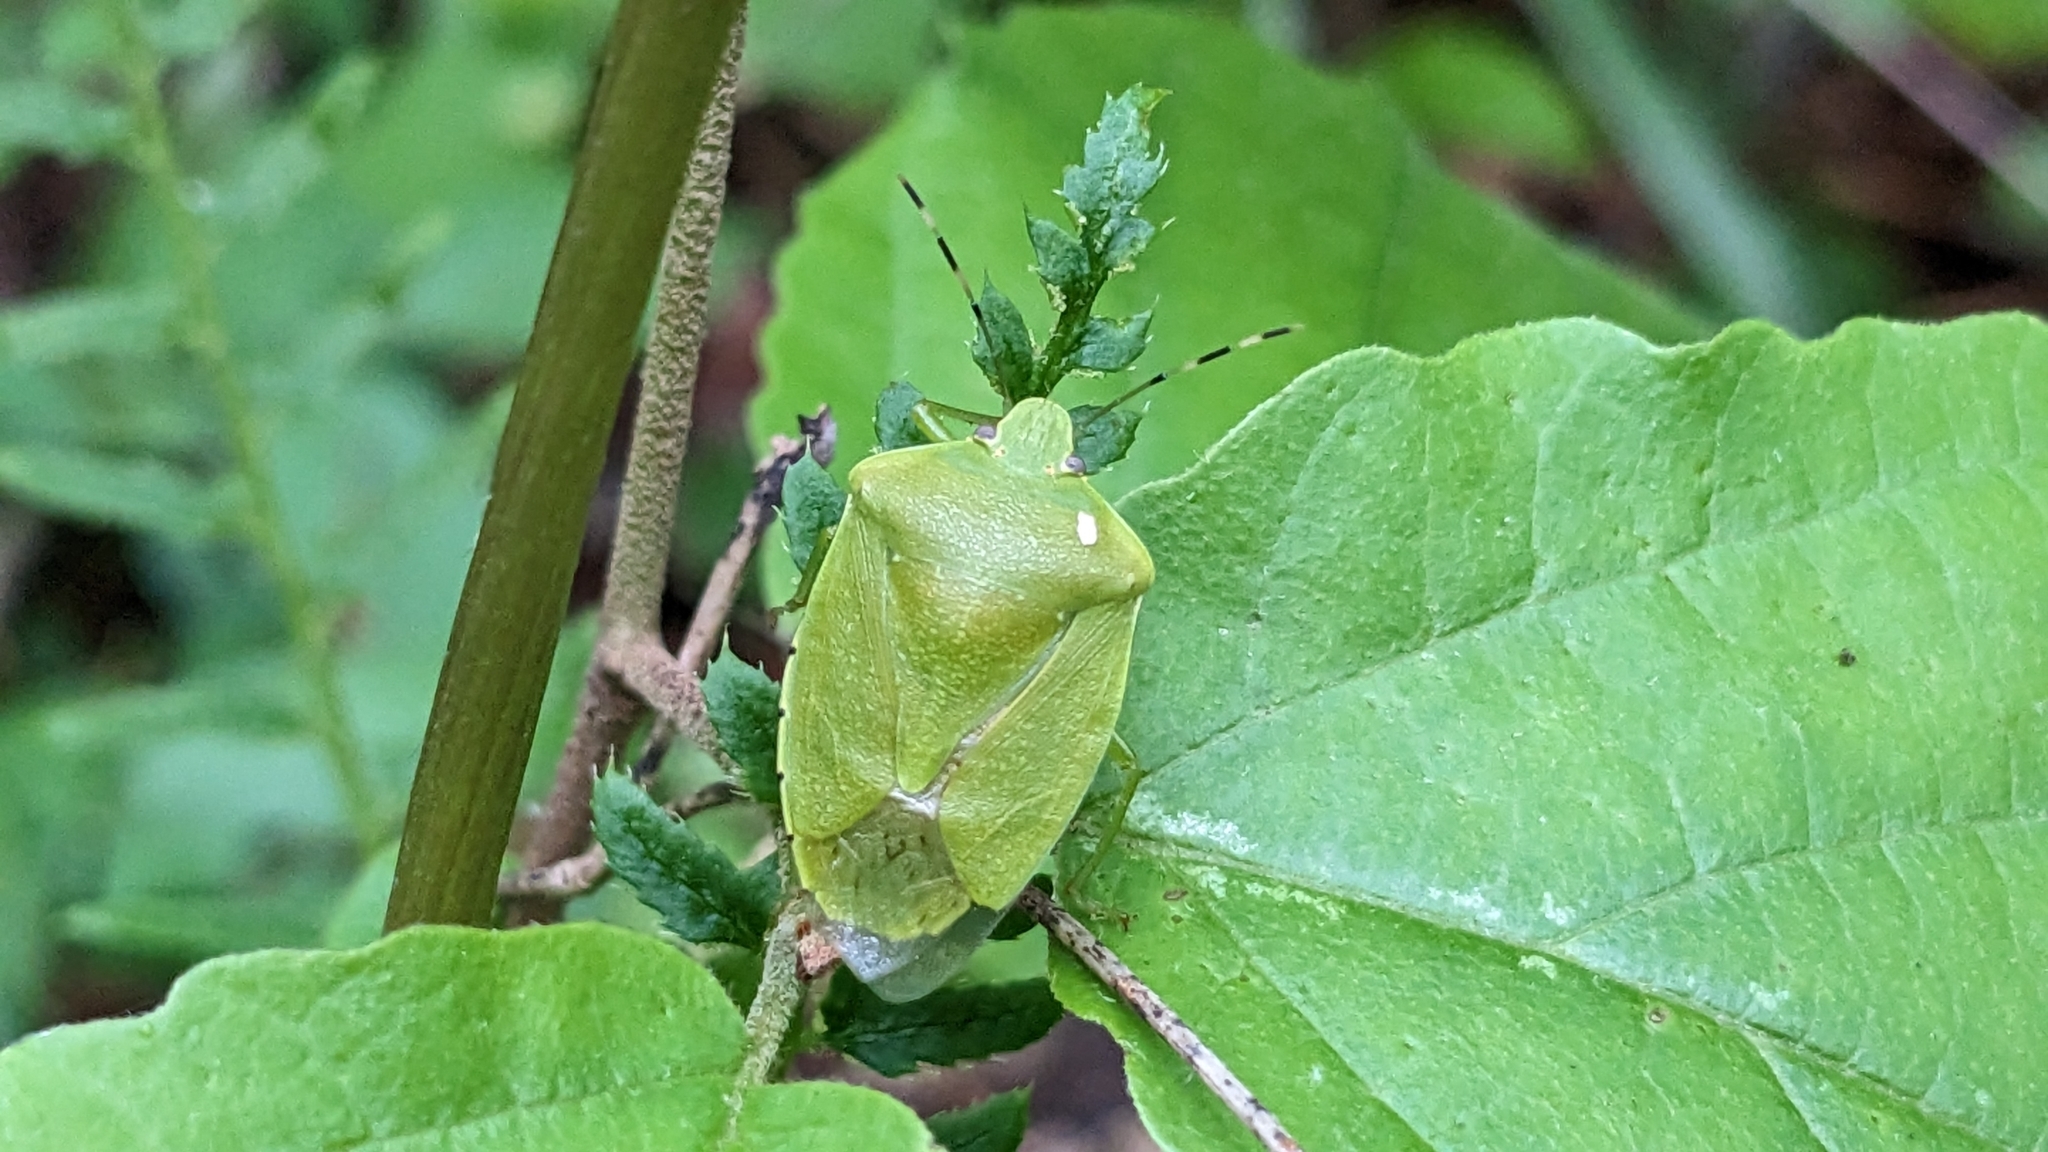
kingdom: Animalia
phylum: Arthropoda
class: Insecta
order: Hemiptera
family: Pentatomidae
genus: Chinavia
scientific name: Chinavia hilaris
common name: Green stink bug
